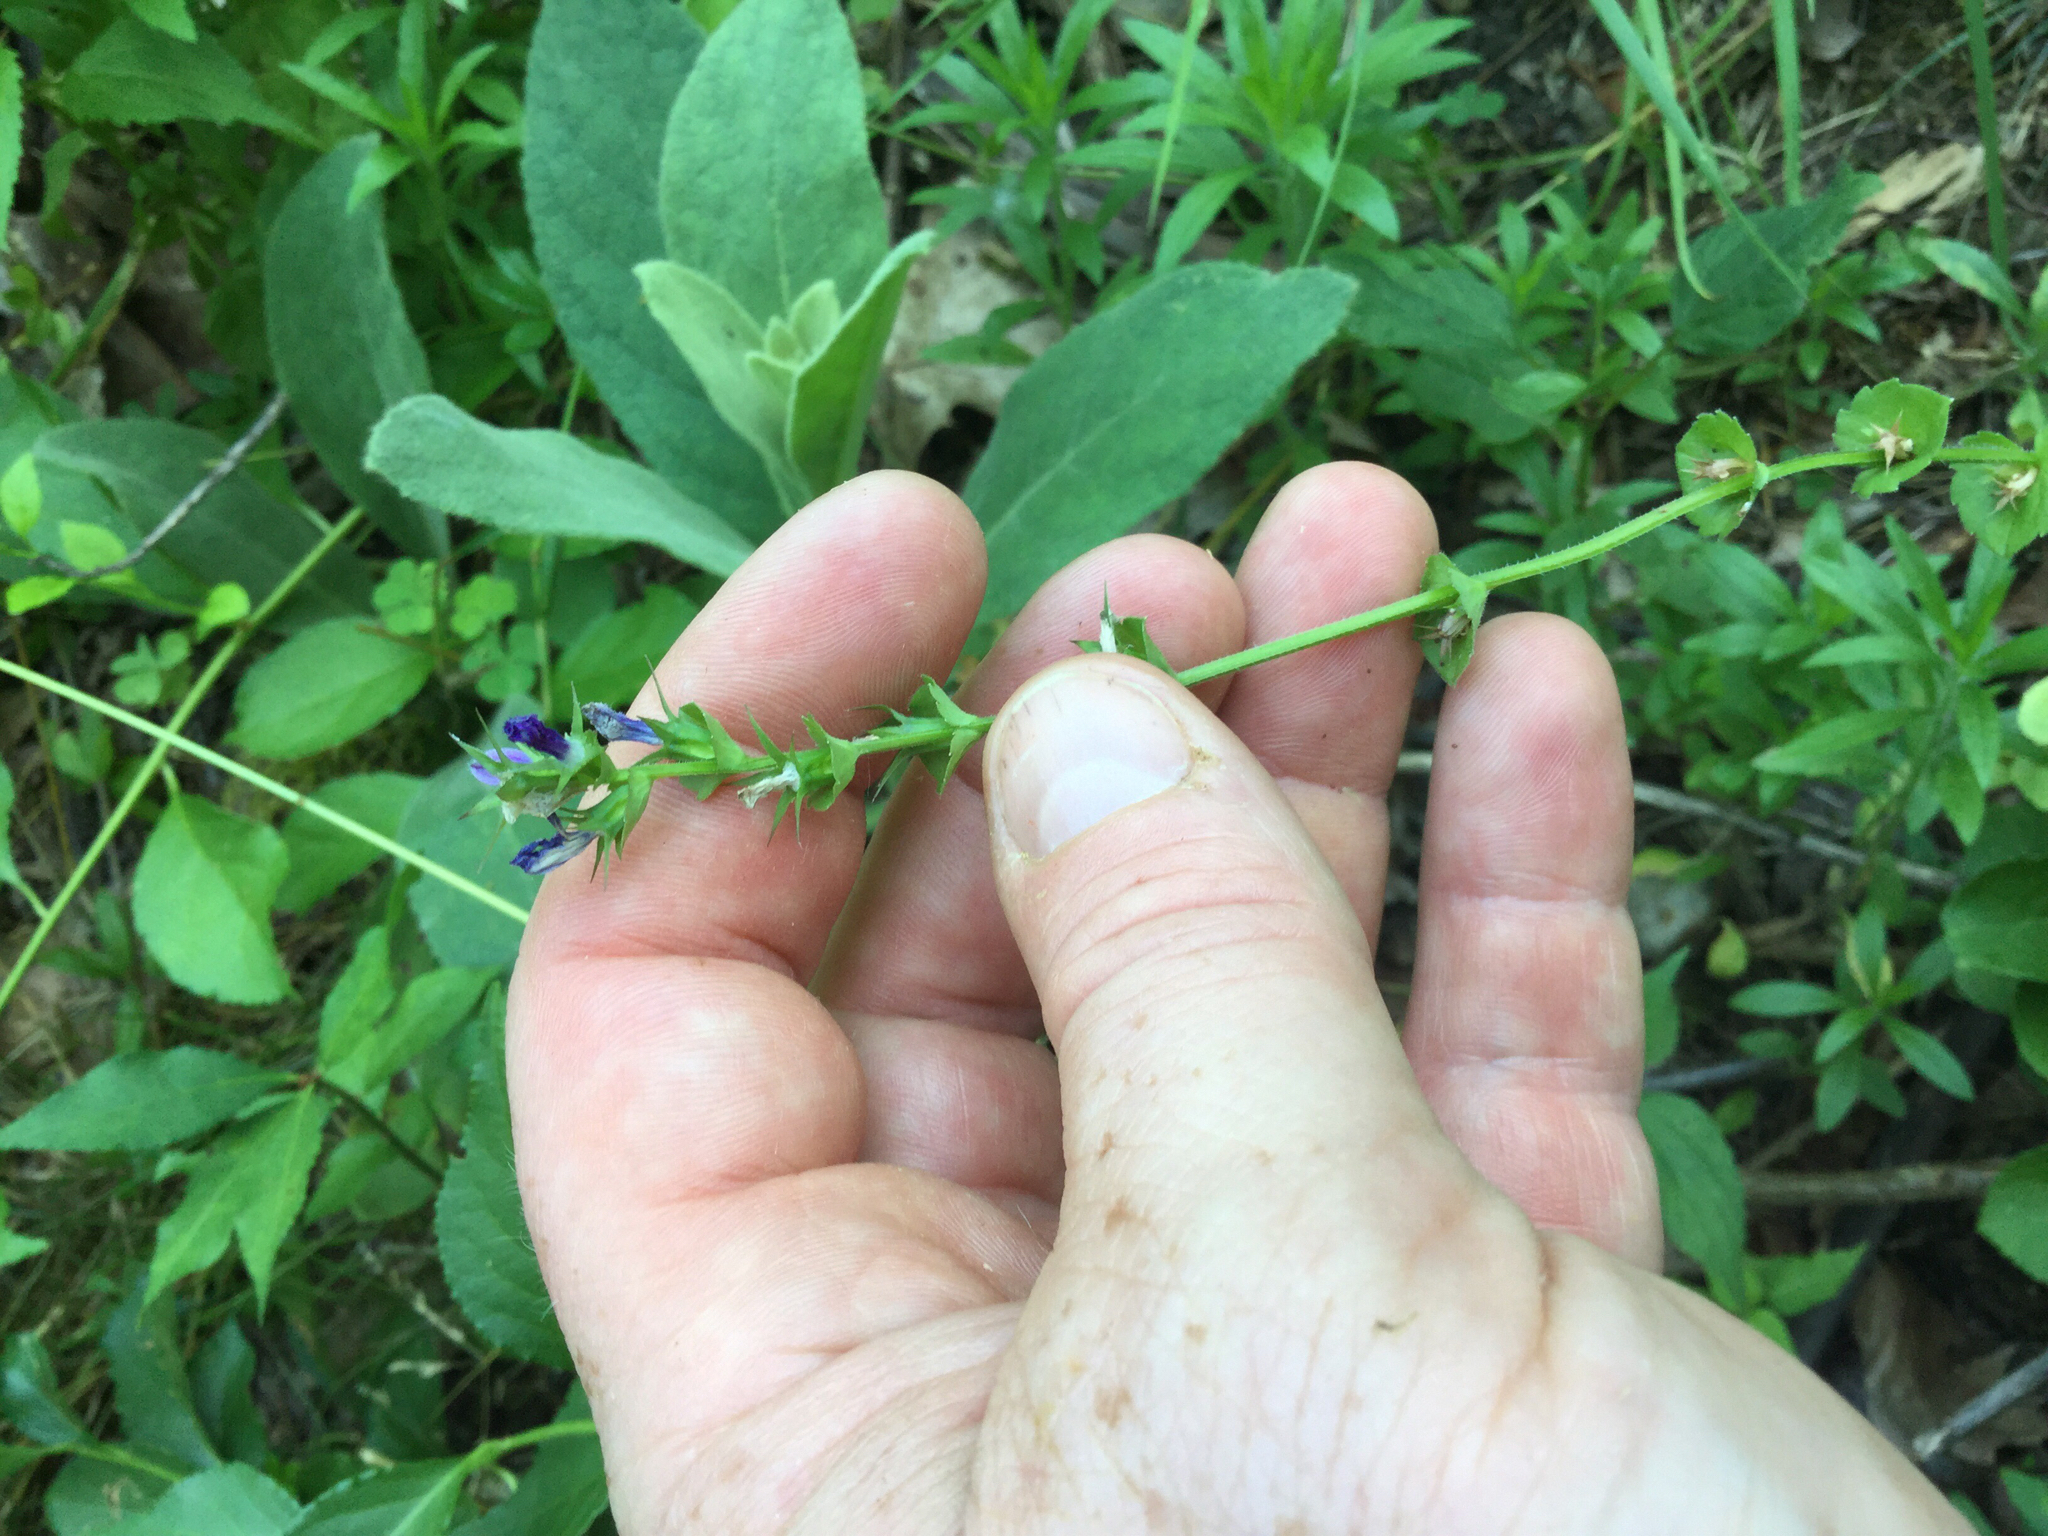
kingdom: Plantae
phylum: Tracheophyta
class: Magnoliopsida
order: Asterales
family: Campanulaceae
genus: Triodanis
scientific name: Triodanis perfoliata
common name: Clasping venus' looking-glass
